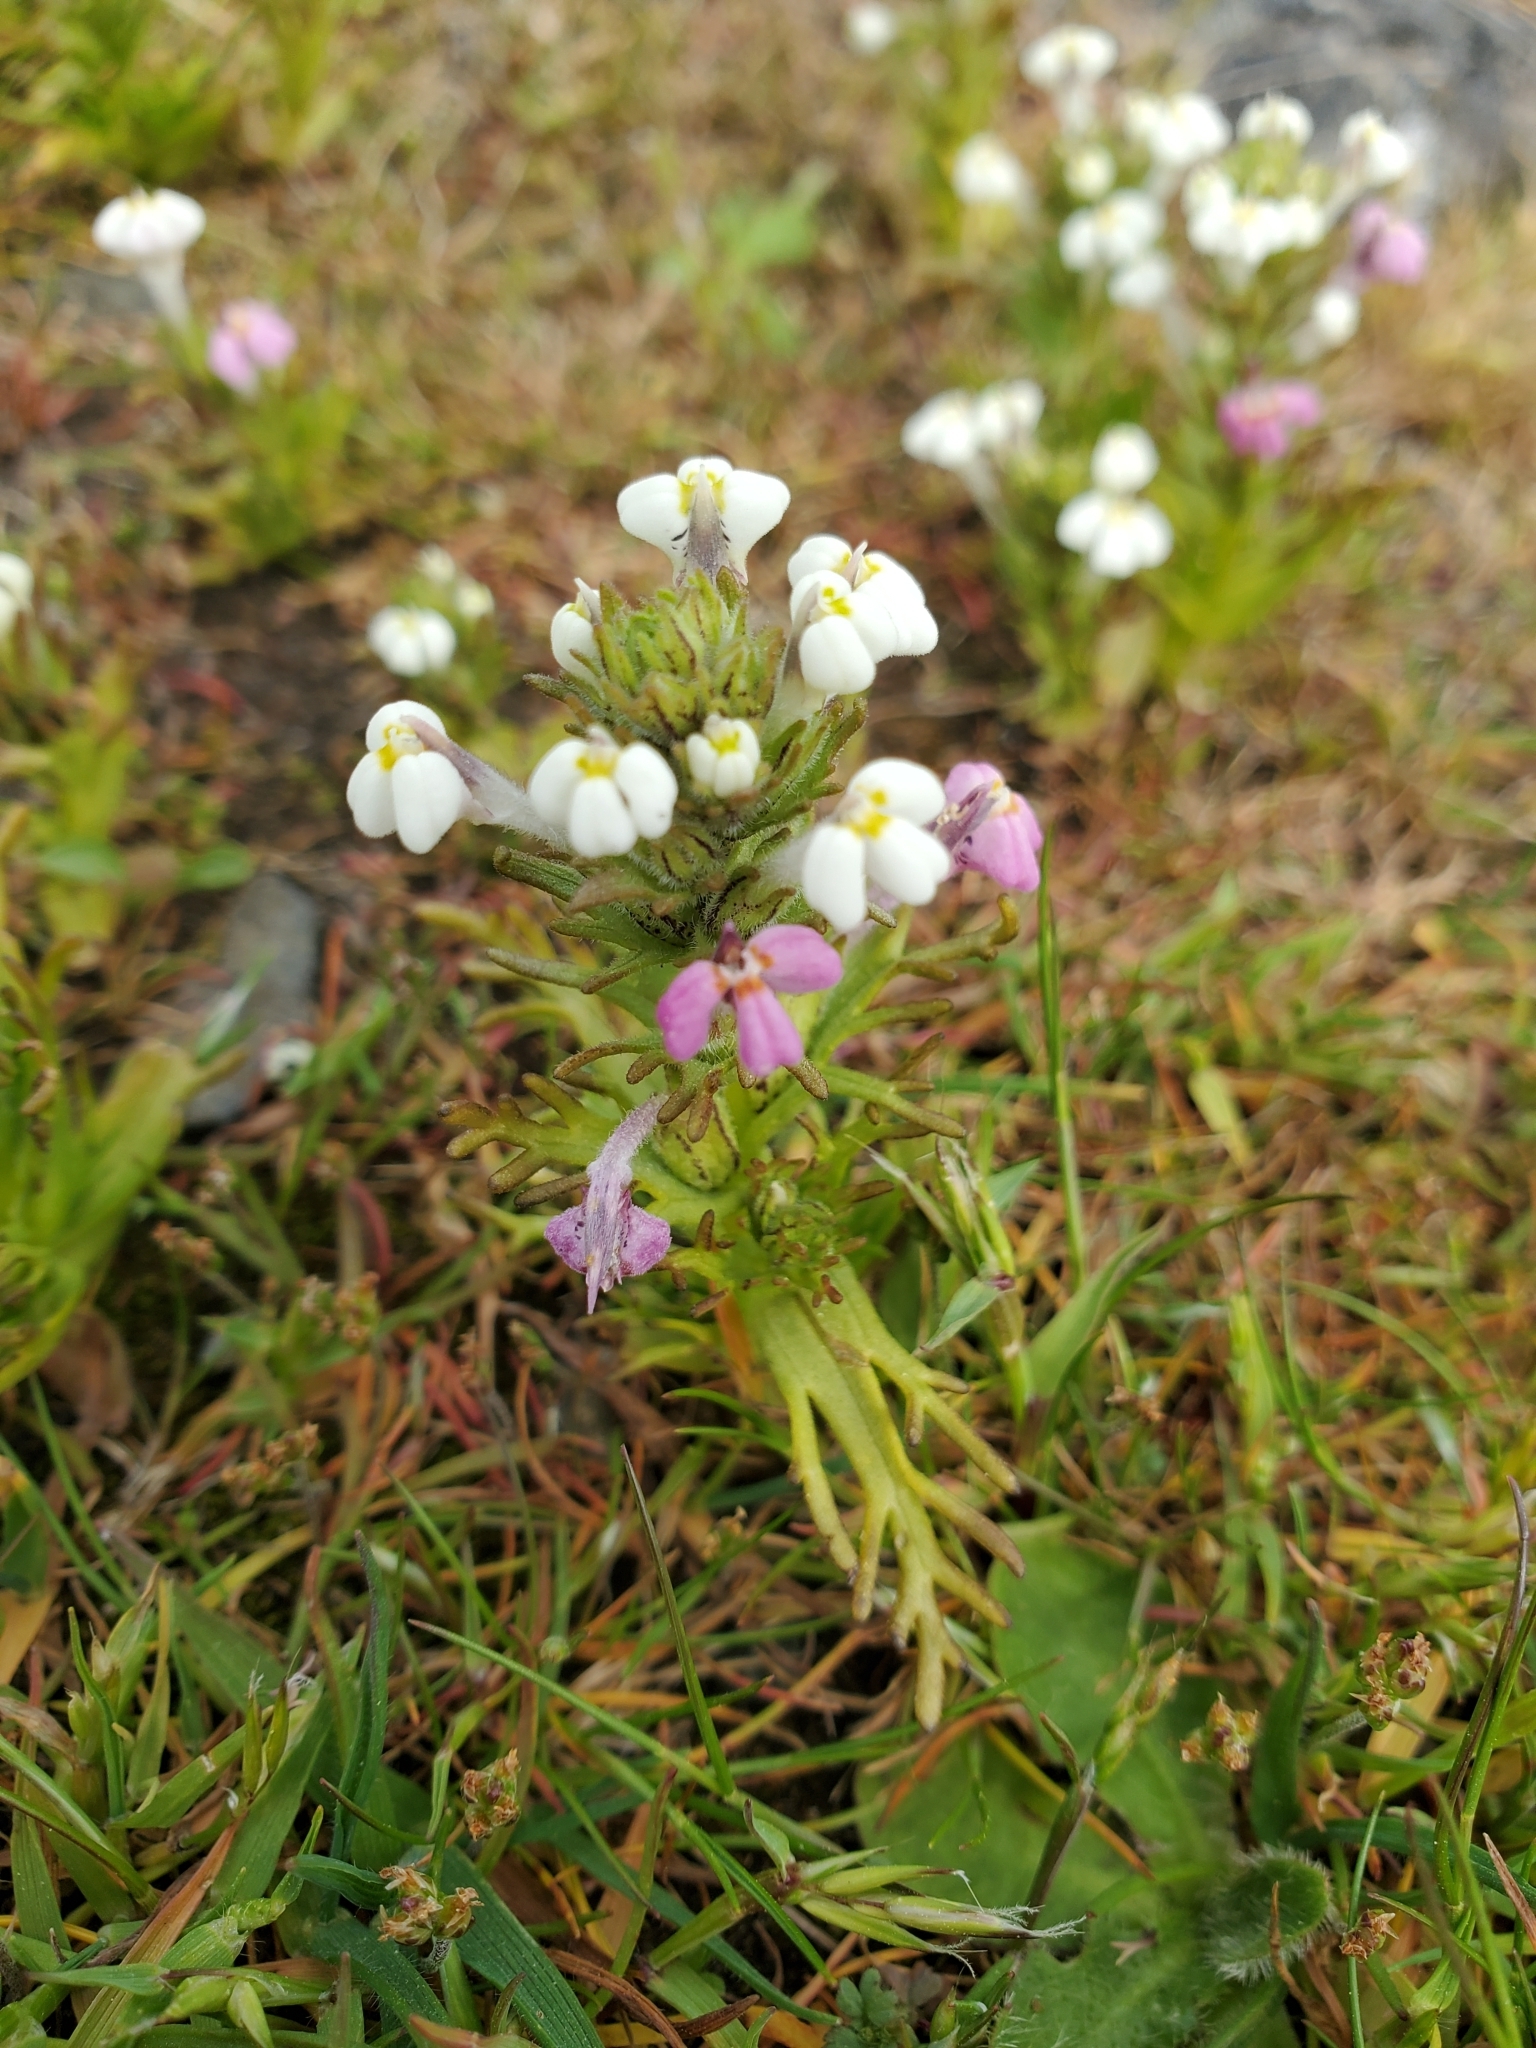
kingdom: Plantae
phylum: Tracheophyta
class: Magnoliopsida
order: Lamiales
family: Orobanchaceae
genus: Triphysaria
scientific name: Triphysaria versicolor
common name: Bearded false owl-clover
